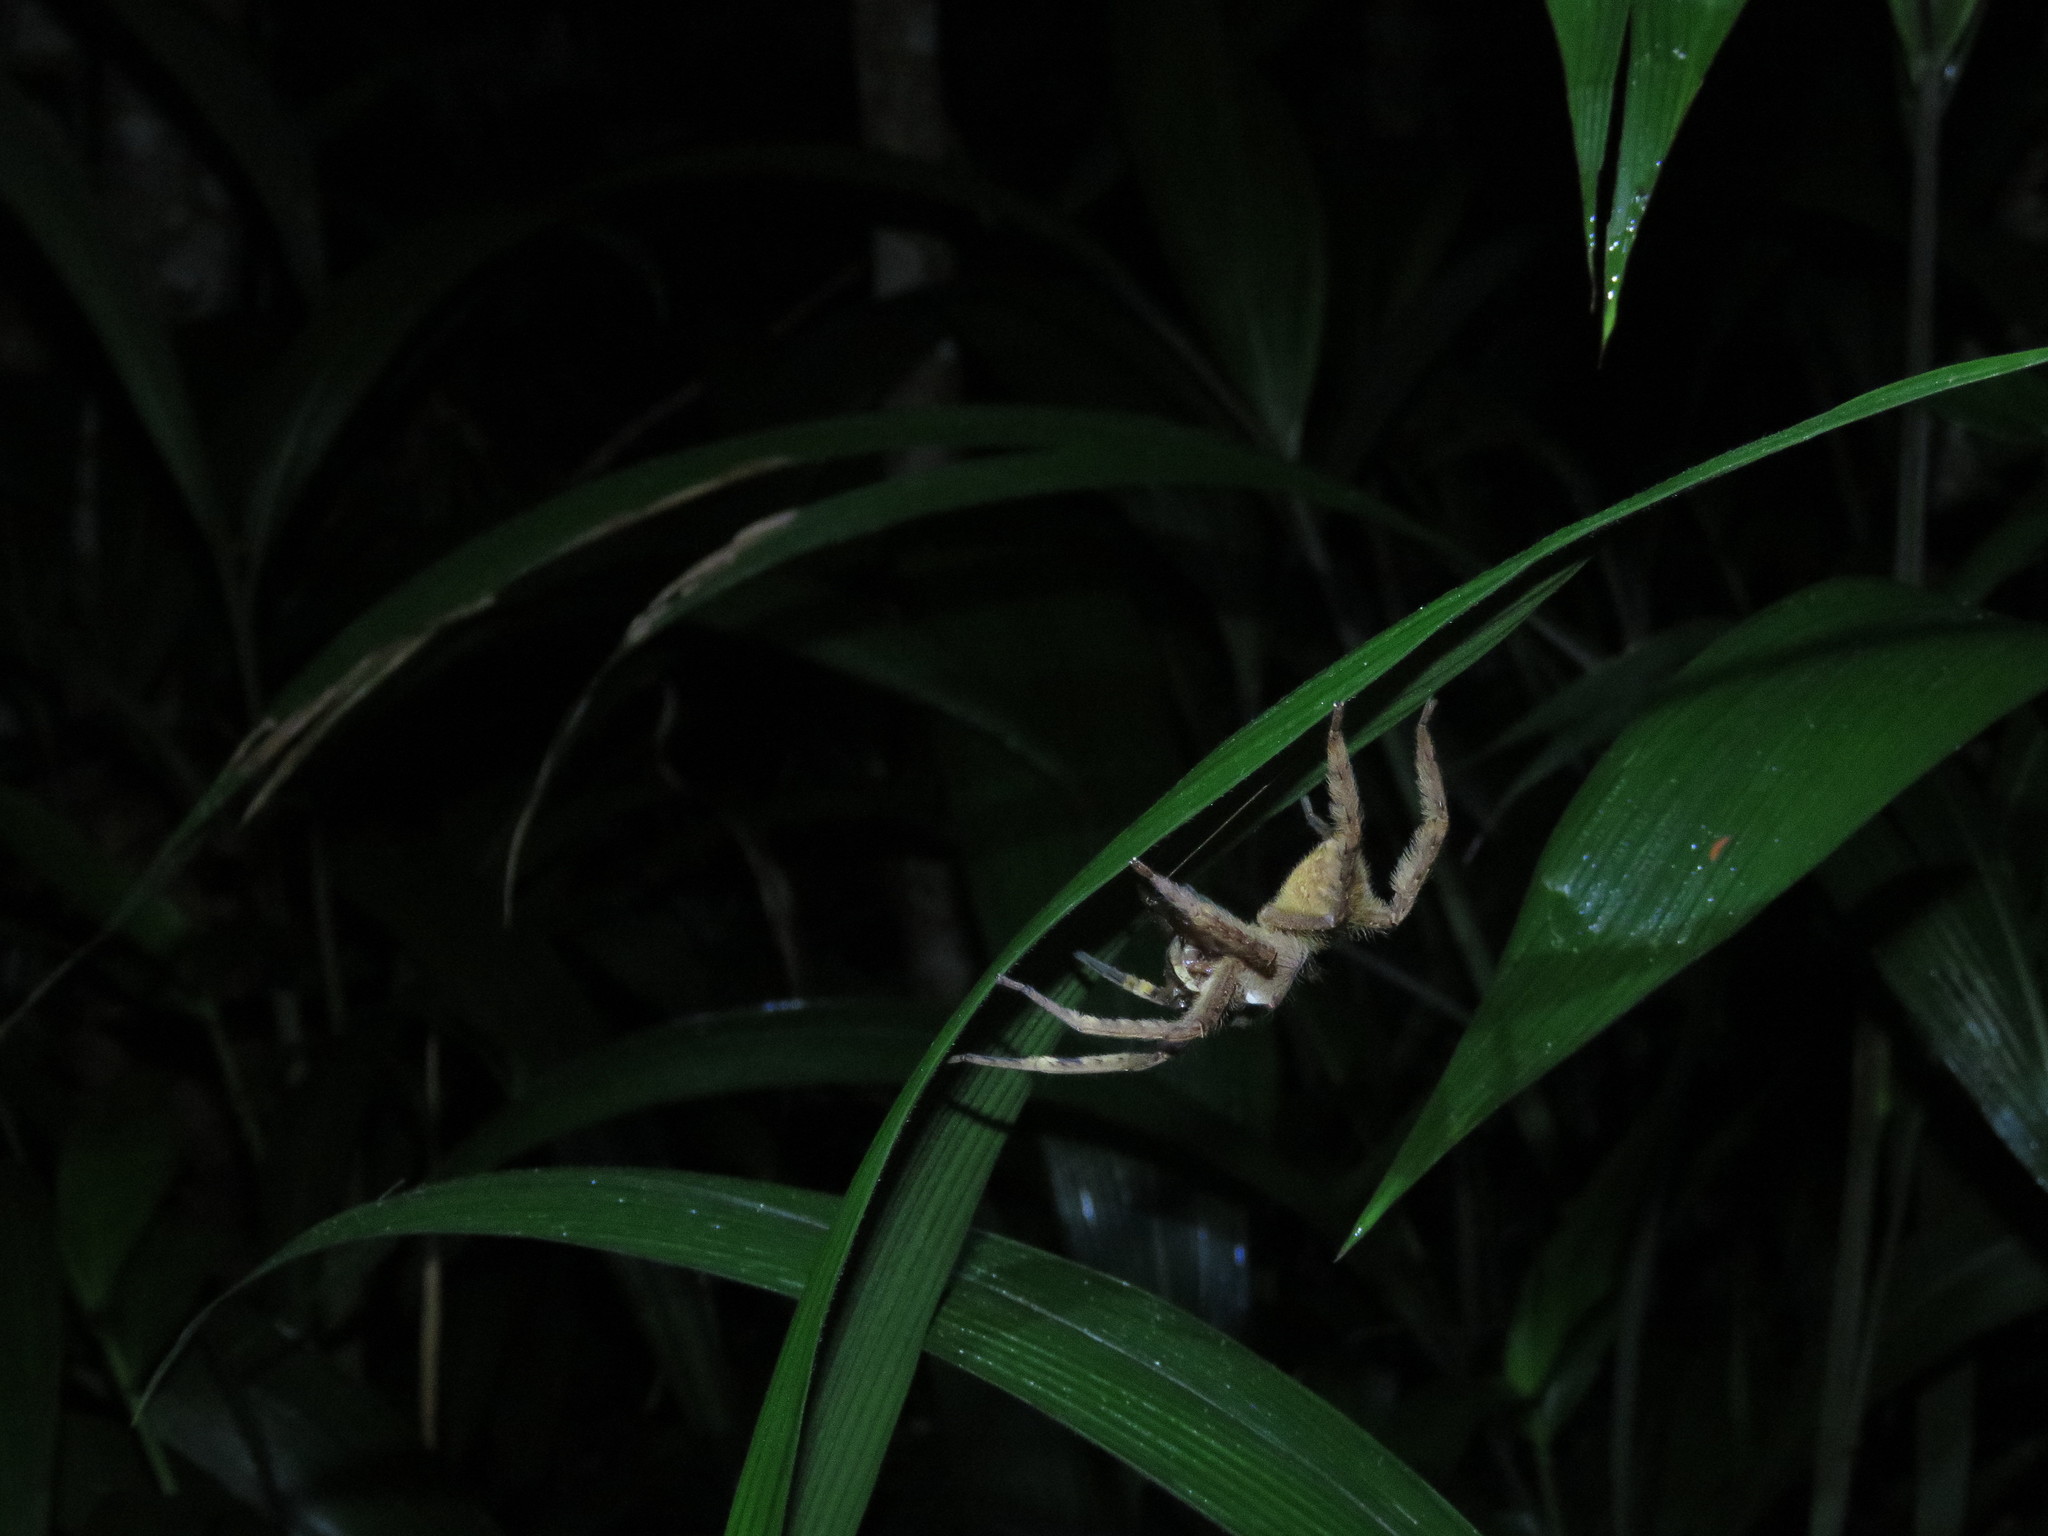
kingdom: Animalia
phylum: Arthropoda
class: Arachnida
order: Araneae
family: Ctenidae
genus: Phoneutria
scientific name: Phoneutria boliviensis
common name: Wandering spiders
